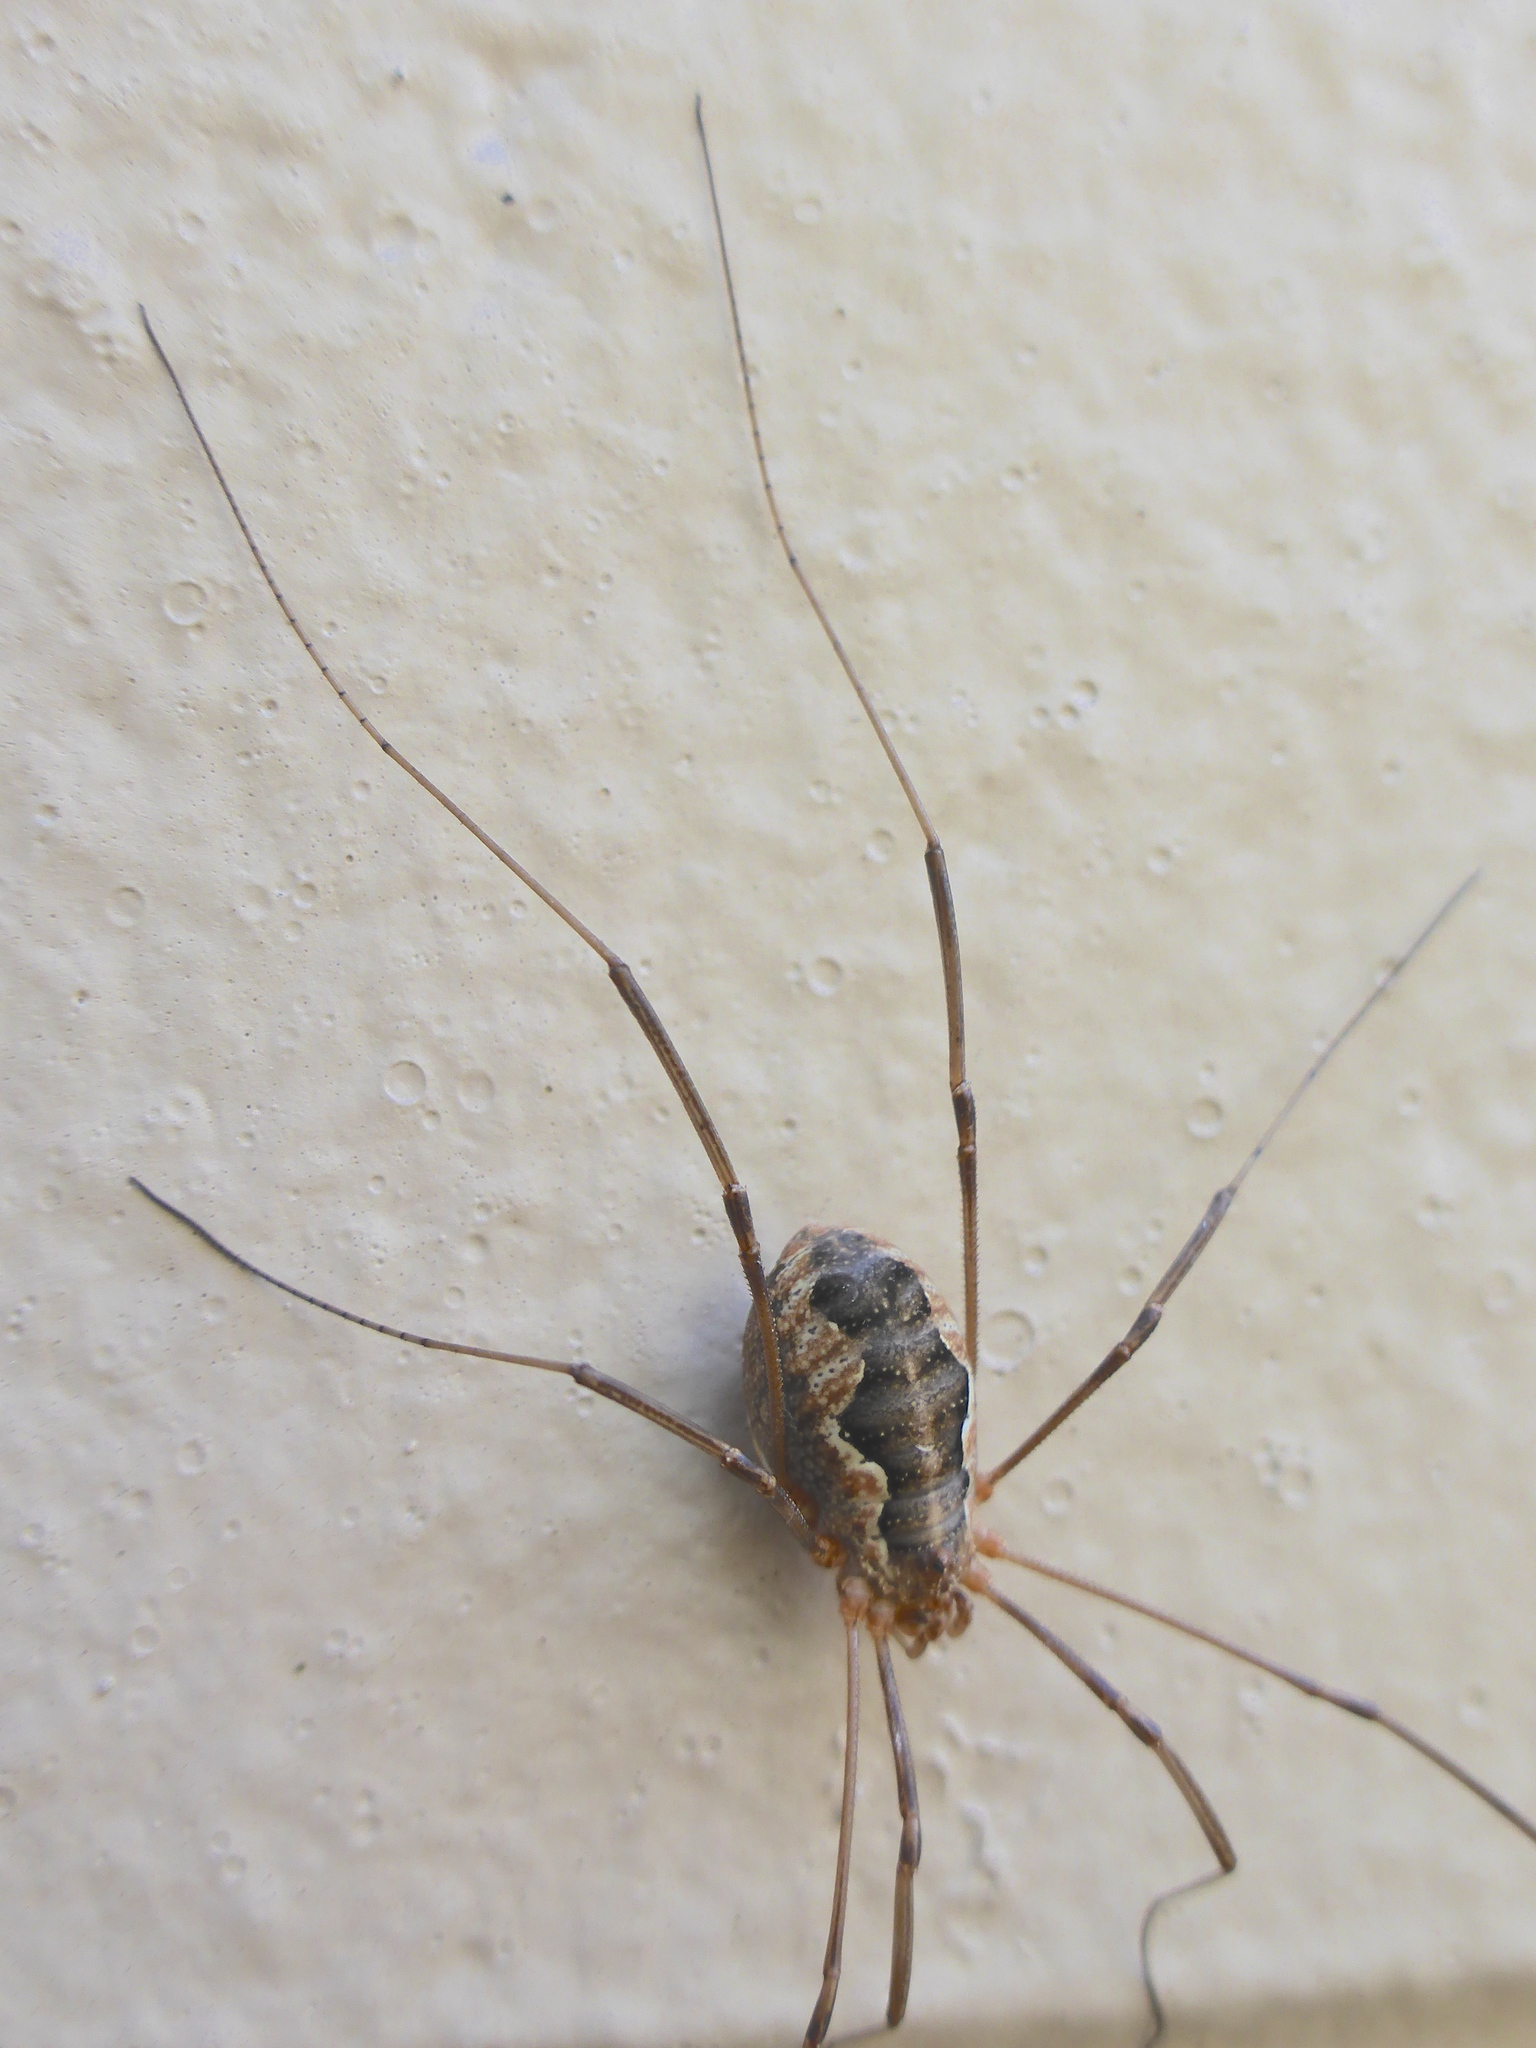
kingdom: Animalia
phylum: Arthropoda
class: Arachnida
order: Opiliones
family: Phalangiidae
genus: Phalangium
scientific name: Phalangium opilio
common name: Daddy longleg
